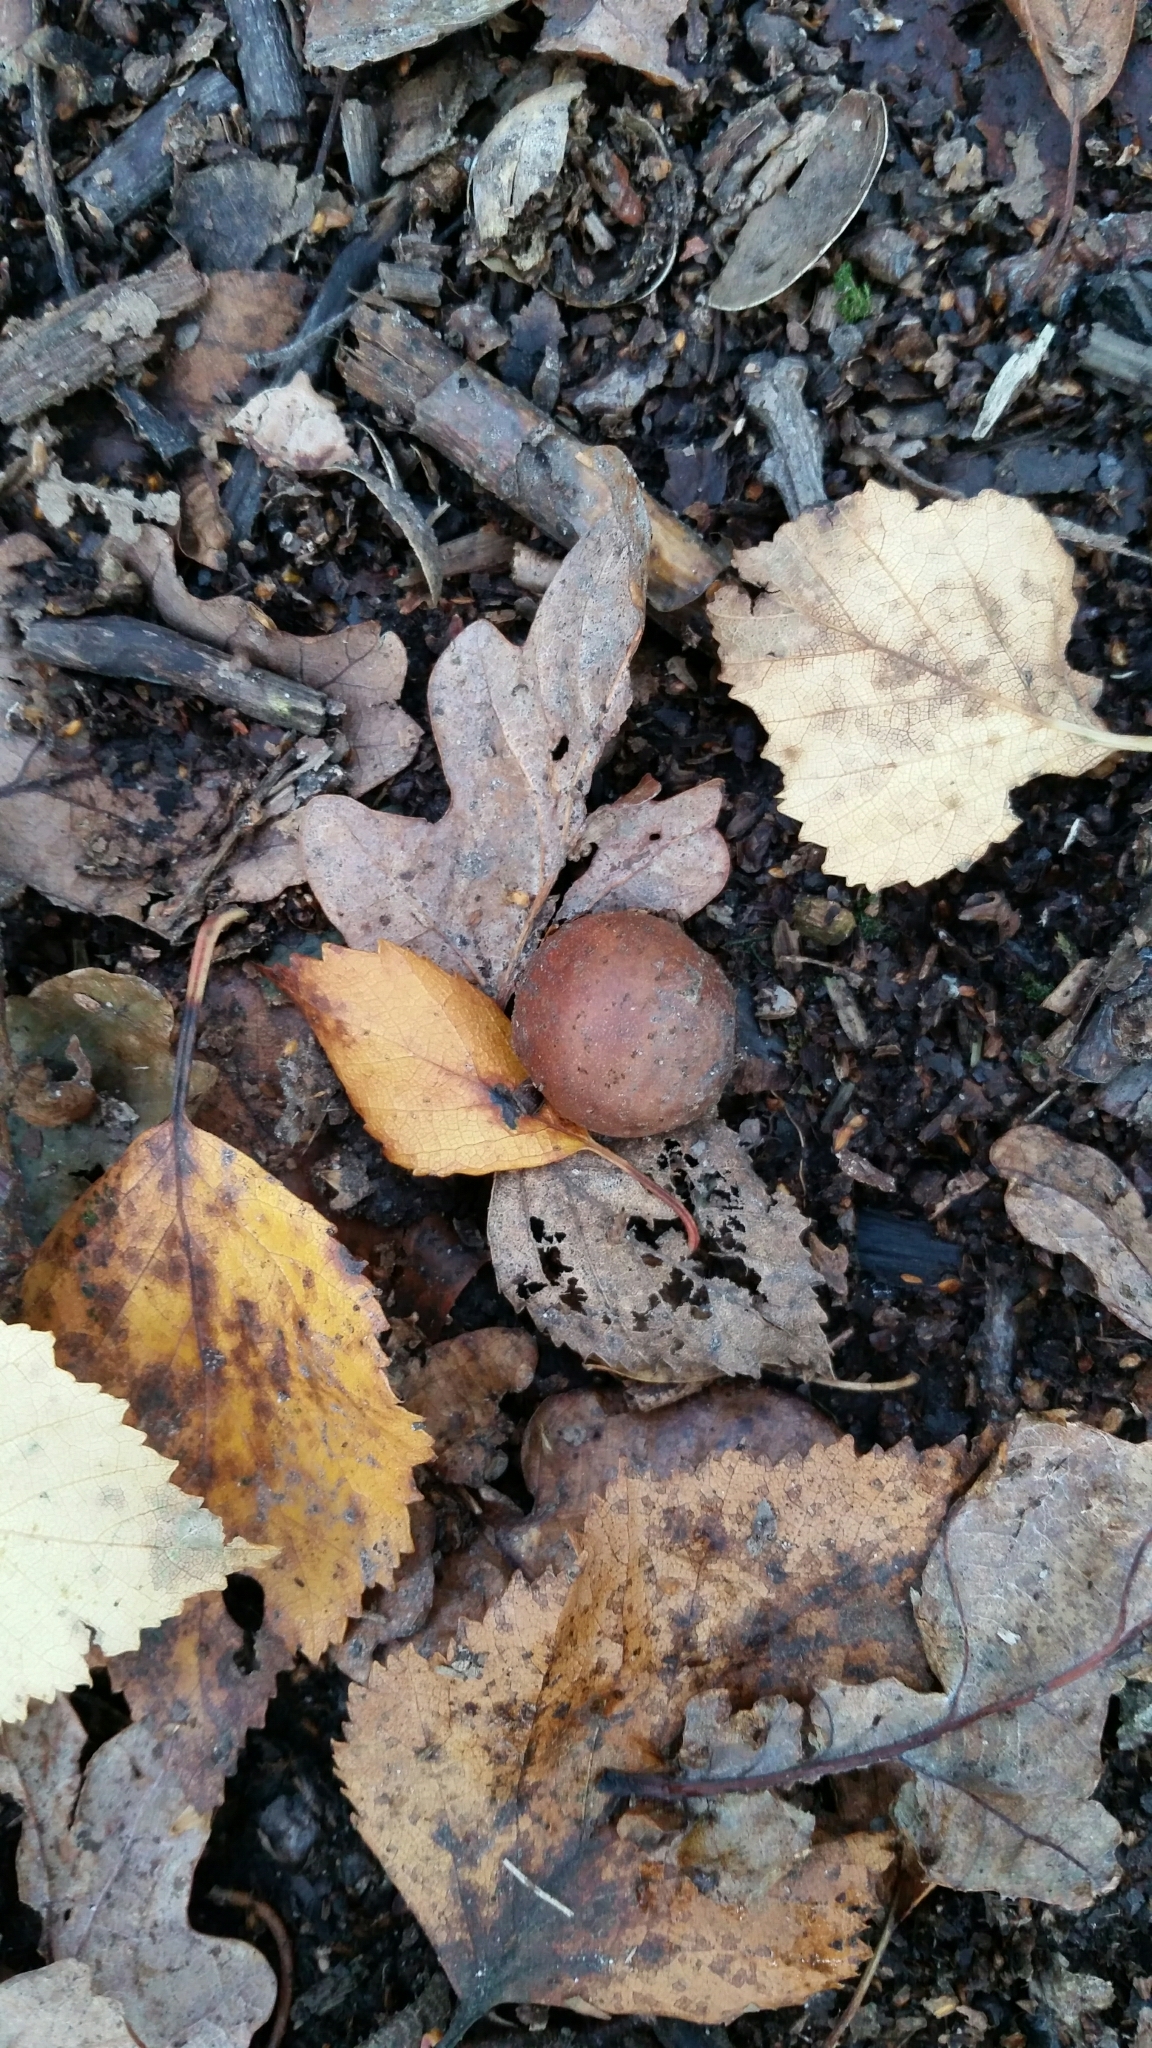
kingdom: Animalia
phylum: Arthropoda
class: Insecta
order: Hymenoptera
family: Cynipidae
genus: Andricus
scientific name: Andricus kollari
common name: Marble gall
